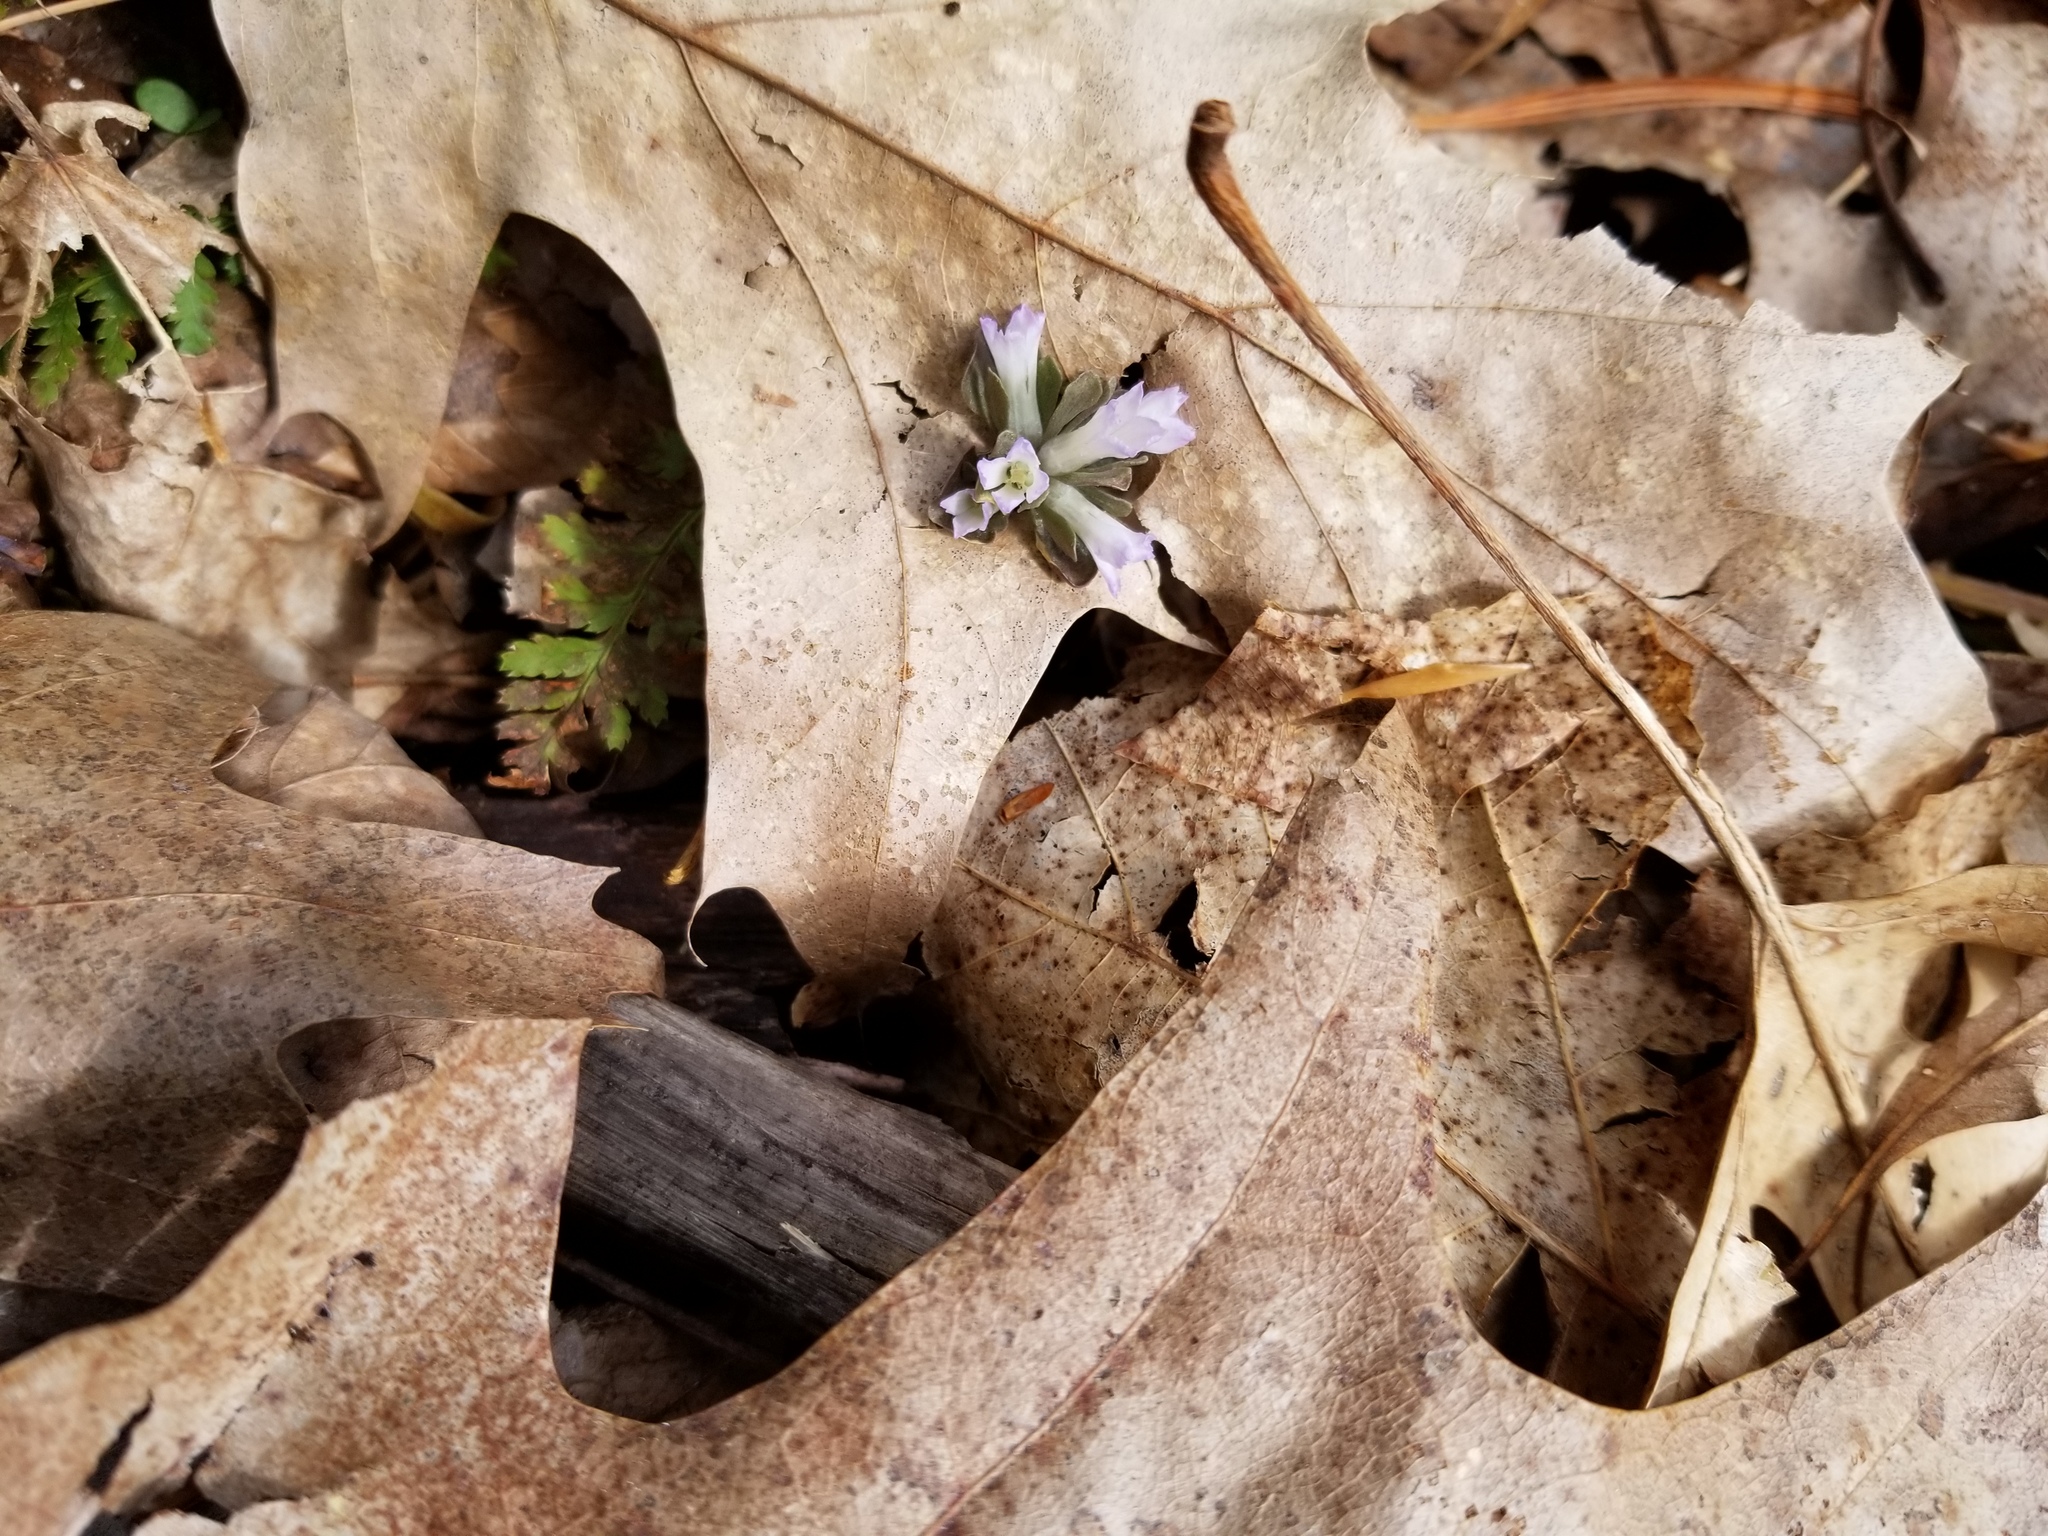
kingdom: Plantae
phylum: Tracheophyta
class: Magnoliopsida
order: Gentianales
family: Gentianaceae
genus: Obolaria
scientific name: Obolaria virginica
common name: Pennywort
